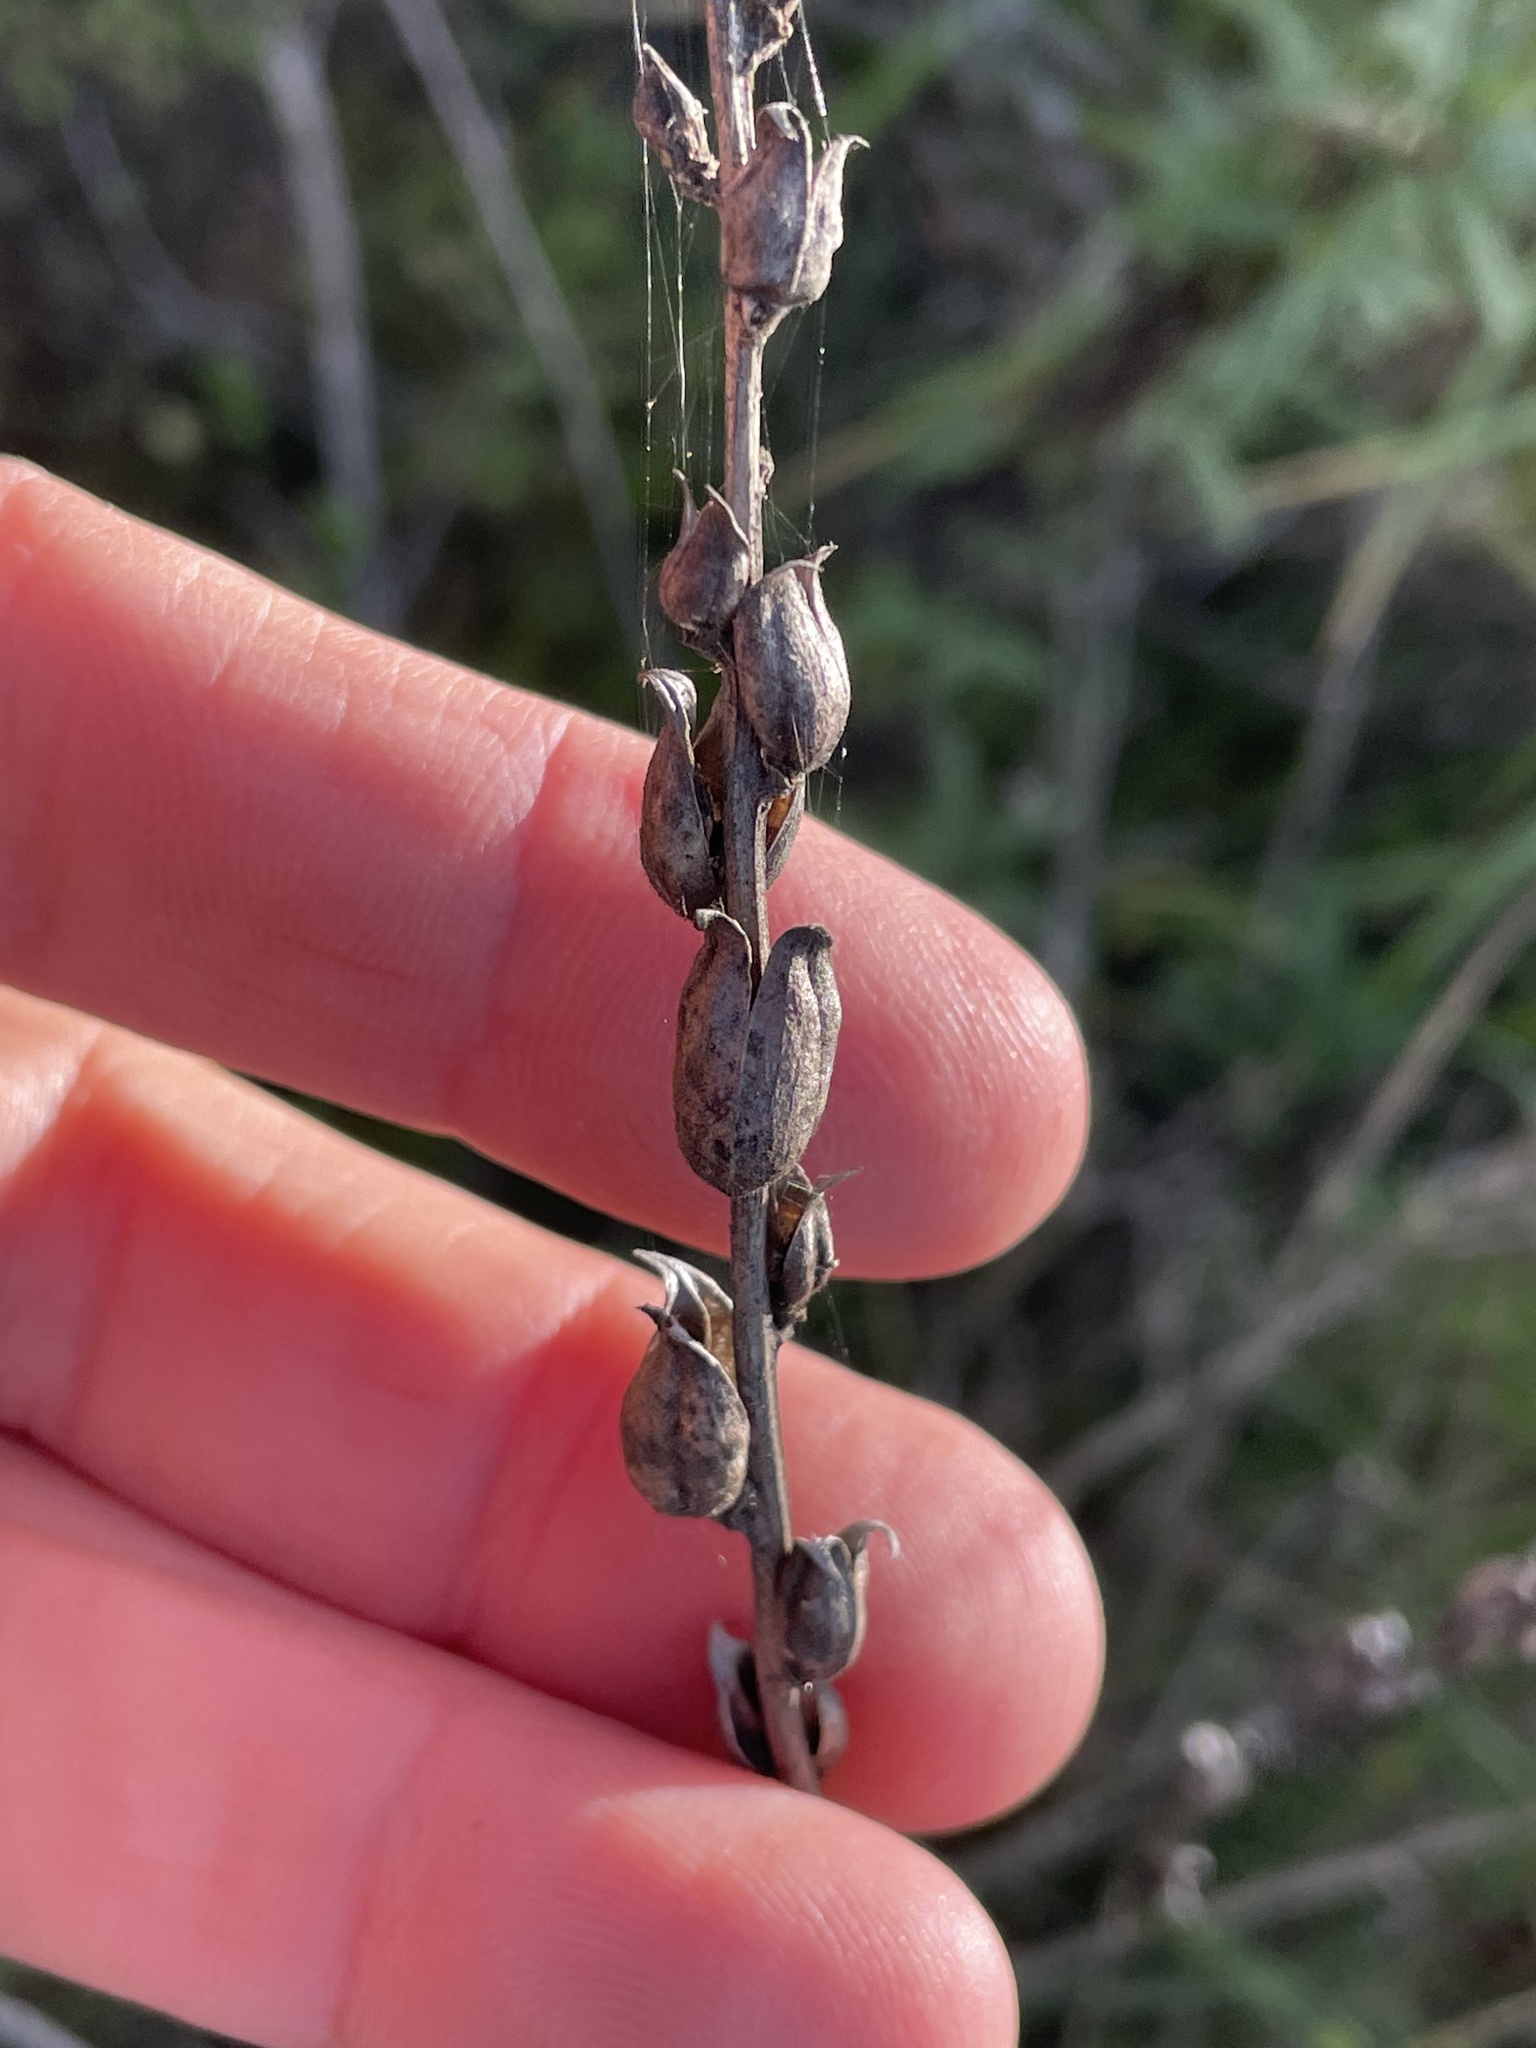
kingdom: Plantae
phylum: Tracheophyta
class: Magnoliopsida
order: Lamiales
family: Orobanchaceae
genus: Castilleja
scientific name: Castilleja affinis
